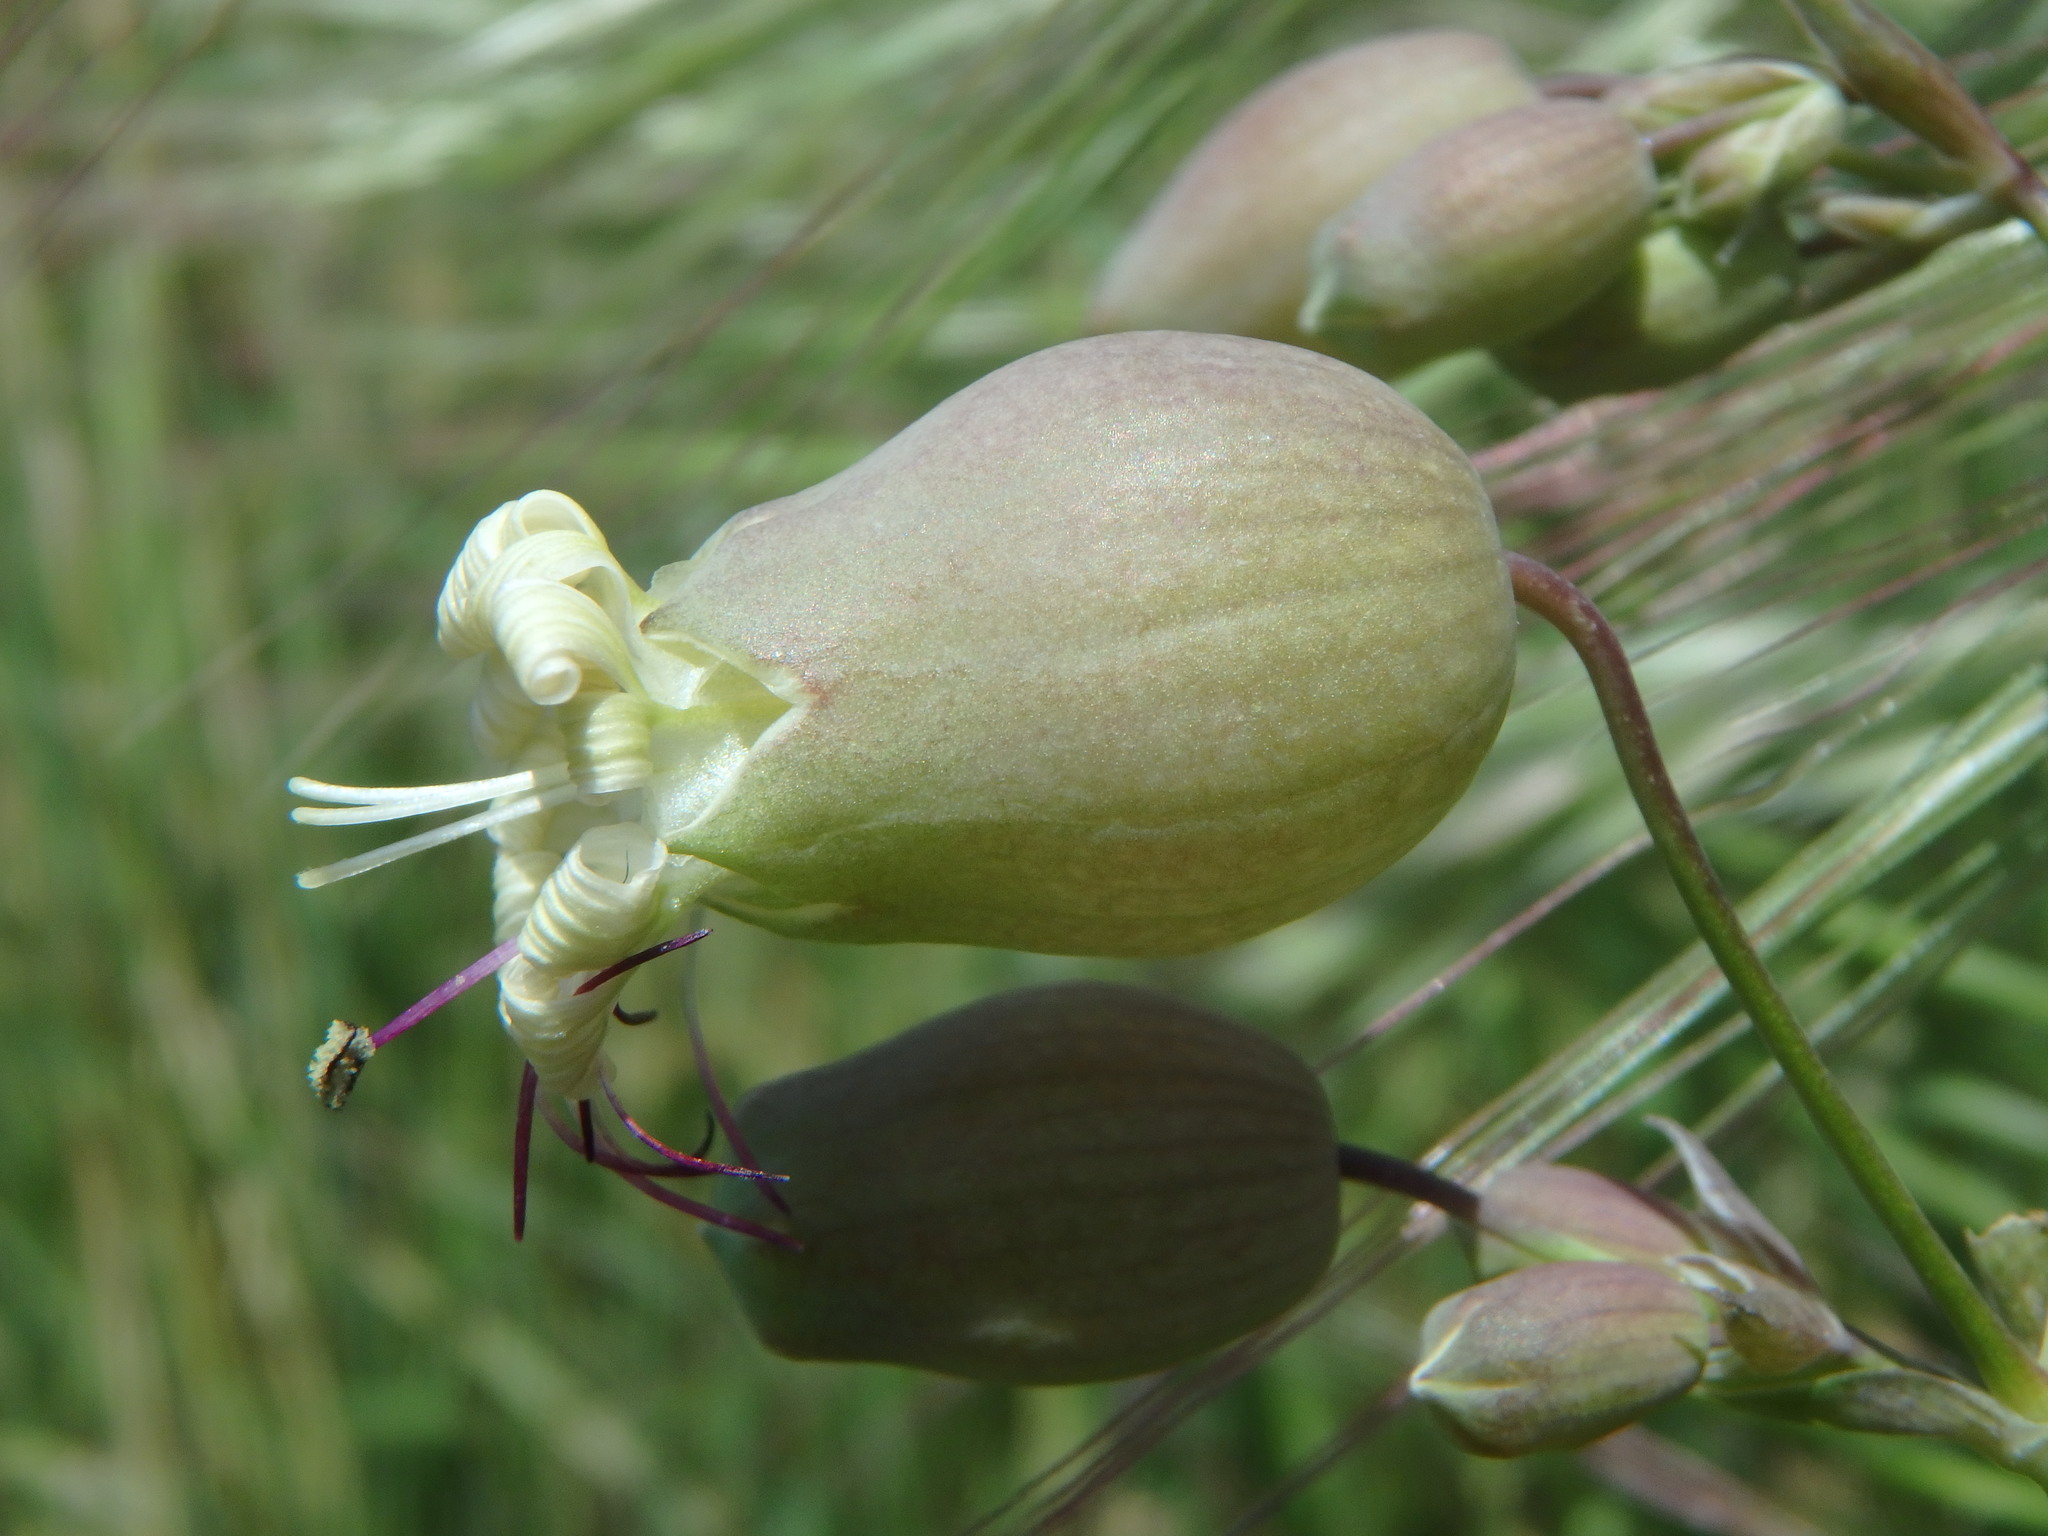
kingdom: Plantae
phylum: Tracheophyta
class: Magnoliopsida
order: Caryophyllales
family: Caryophyllaceae
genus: Silene
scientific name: Silene vulgaris
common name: Bladder campion
